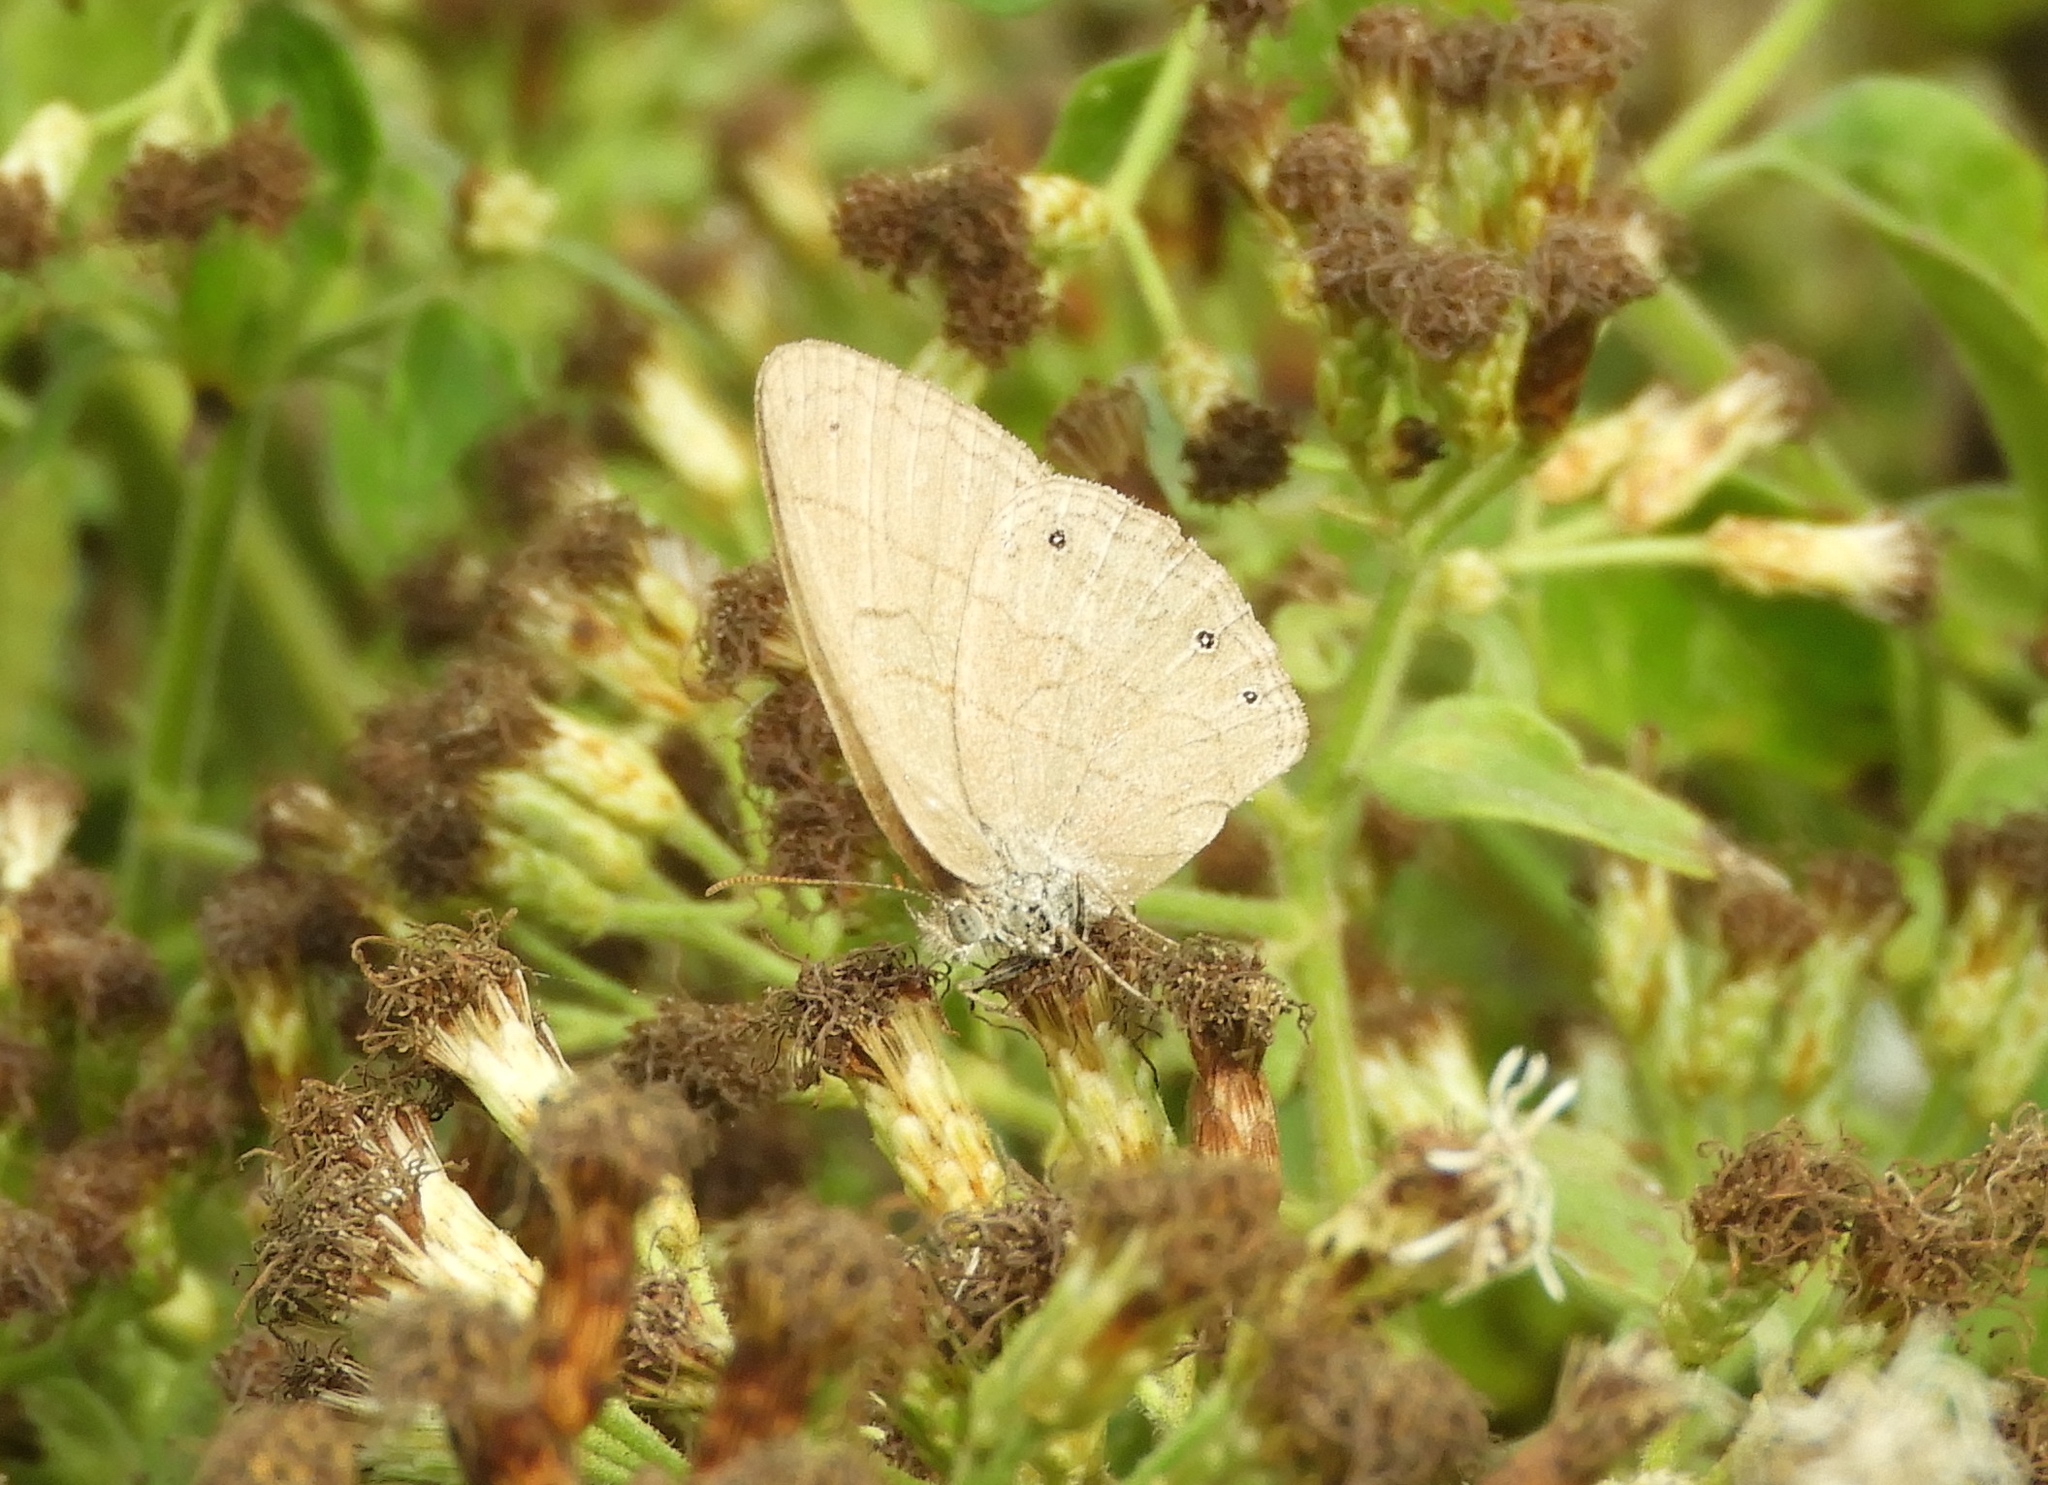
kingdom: Animalia
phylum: Arthropoda
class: Insecta
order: Lepidoptera
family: Nymphalidae
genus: Hermeuptychia
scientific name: Hermeuptychia hermes
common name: Hermes satyr
